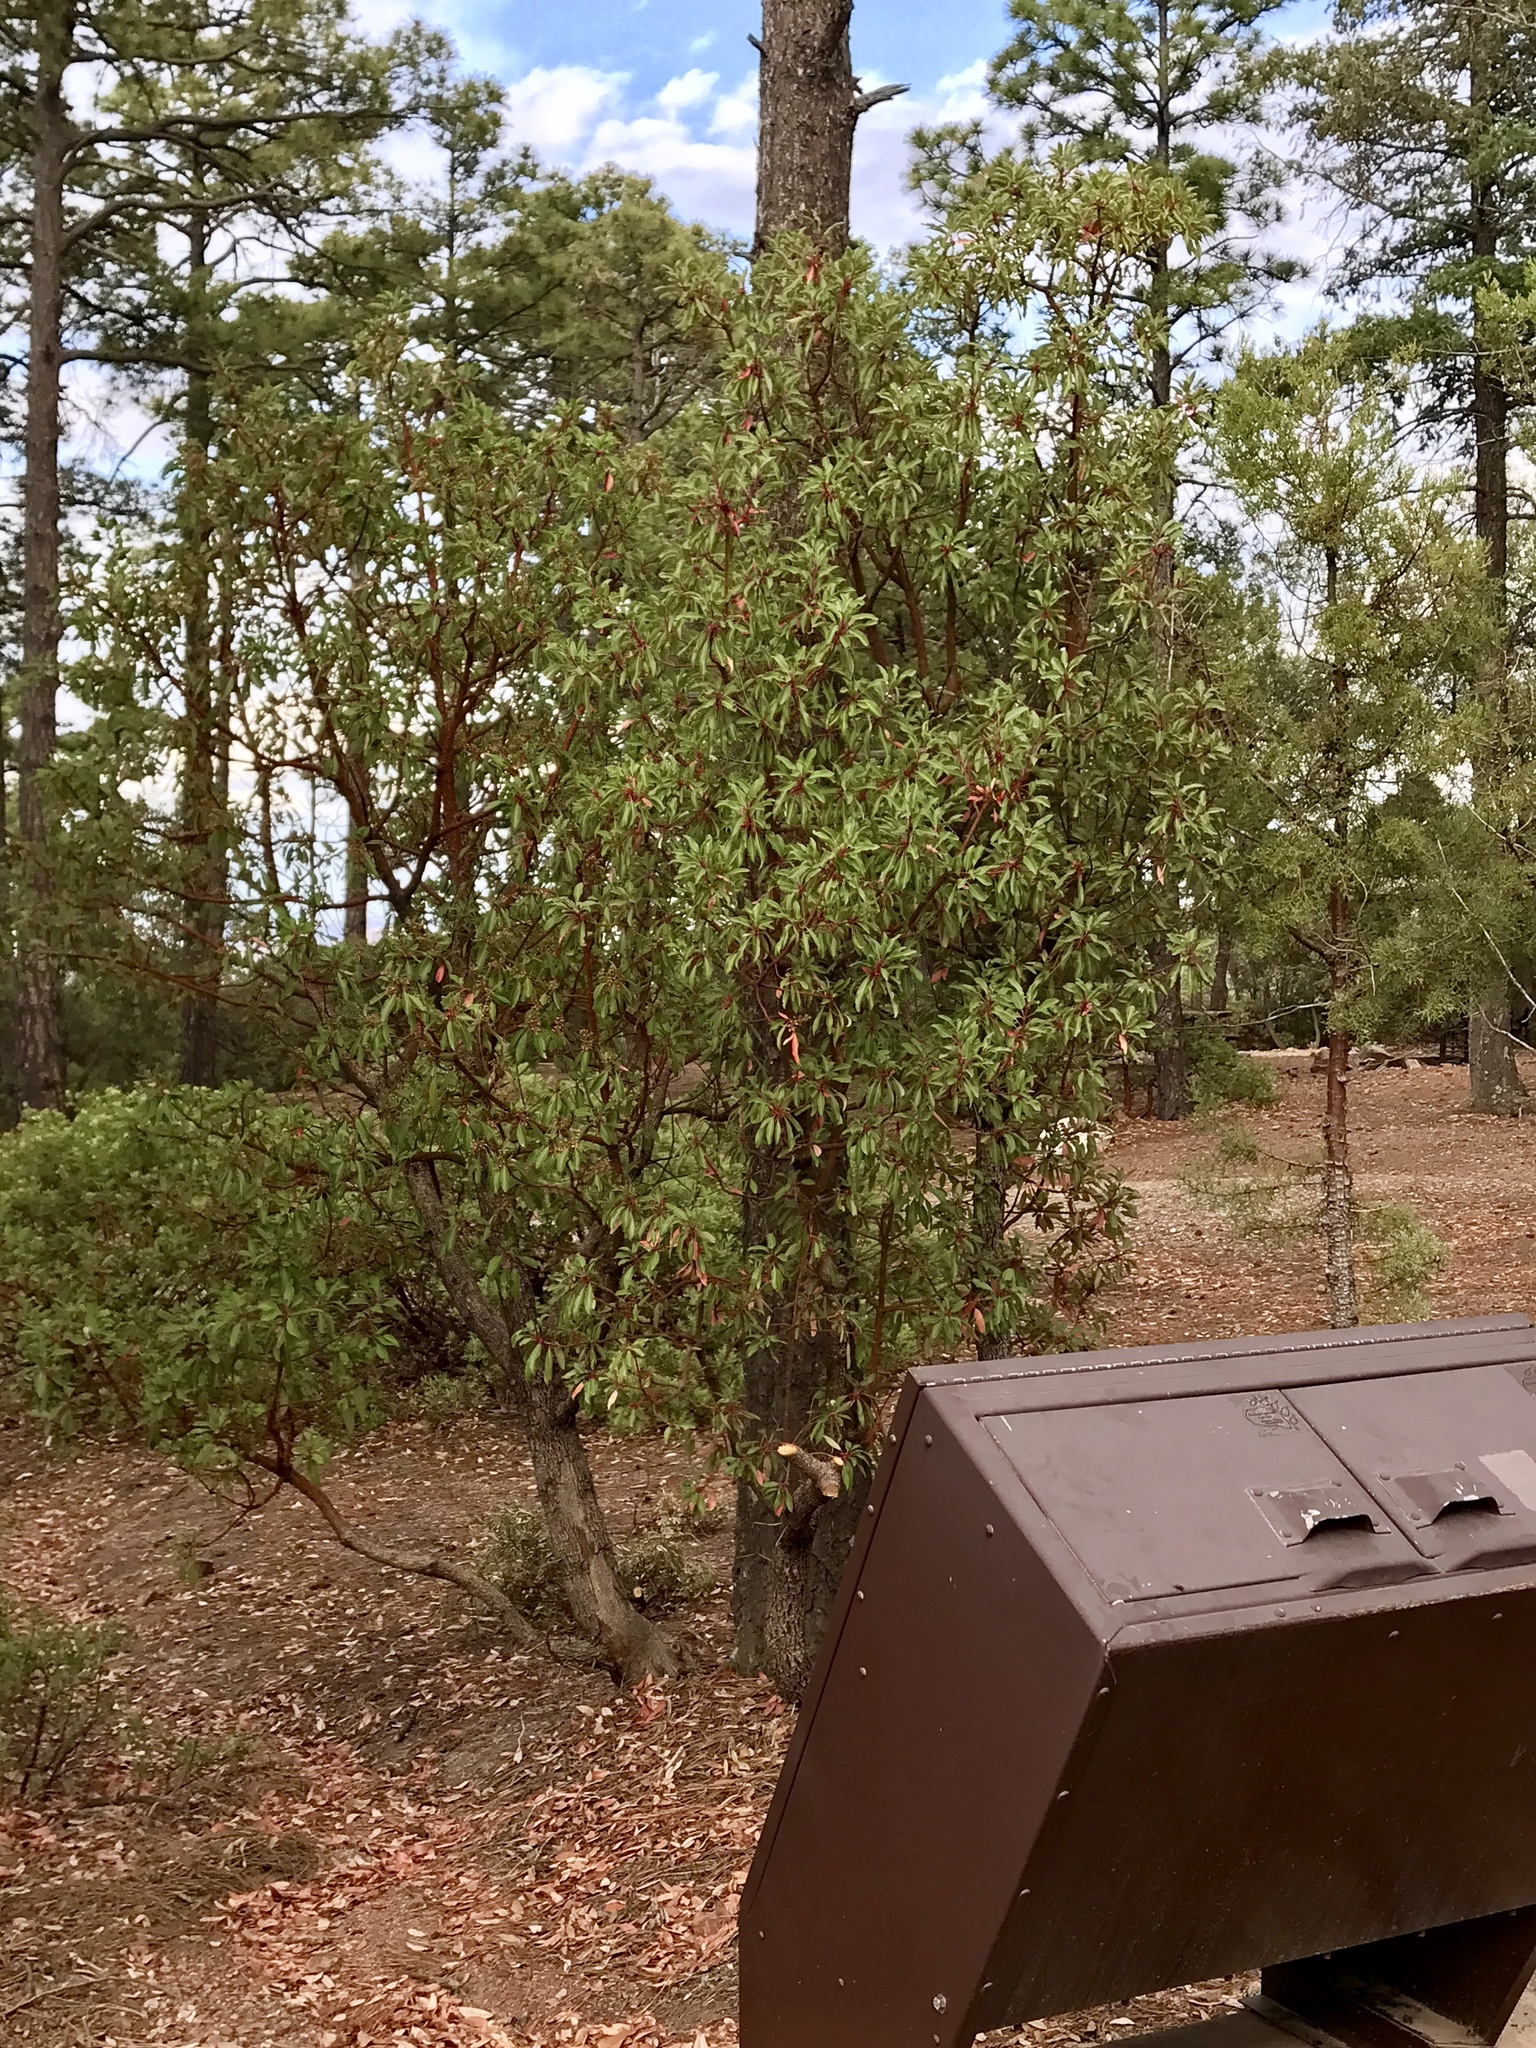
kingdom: Plantae
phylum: Tracheophyta
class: Magnoliopsida
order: Ericales
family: Ericaceae
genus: Arbutus
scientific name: Arbutus arizonica
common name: Arizona madrone
